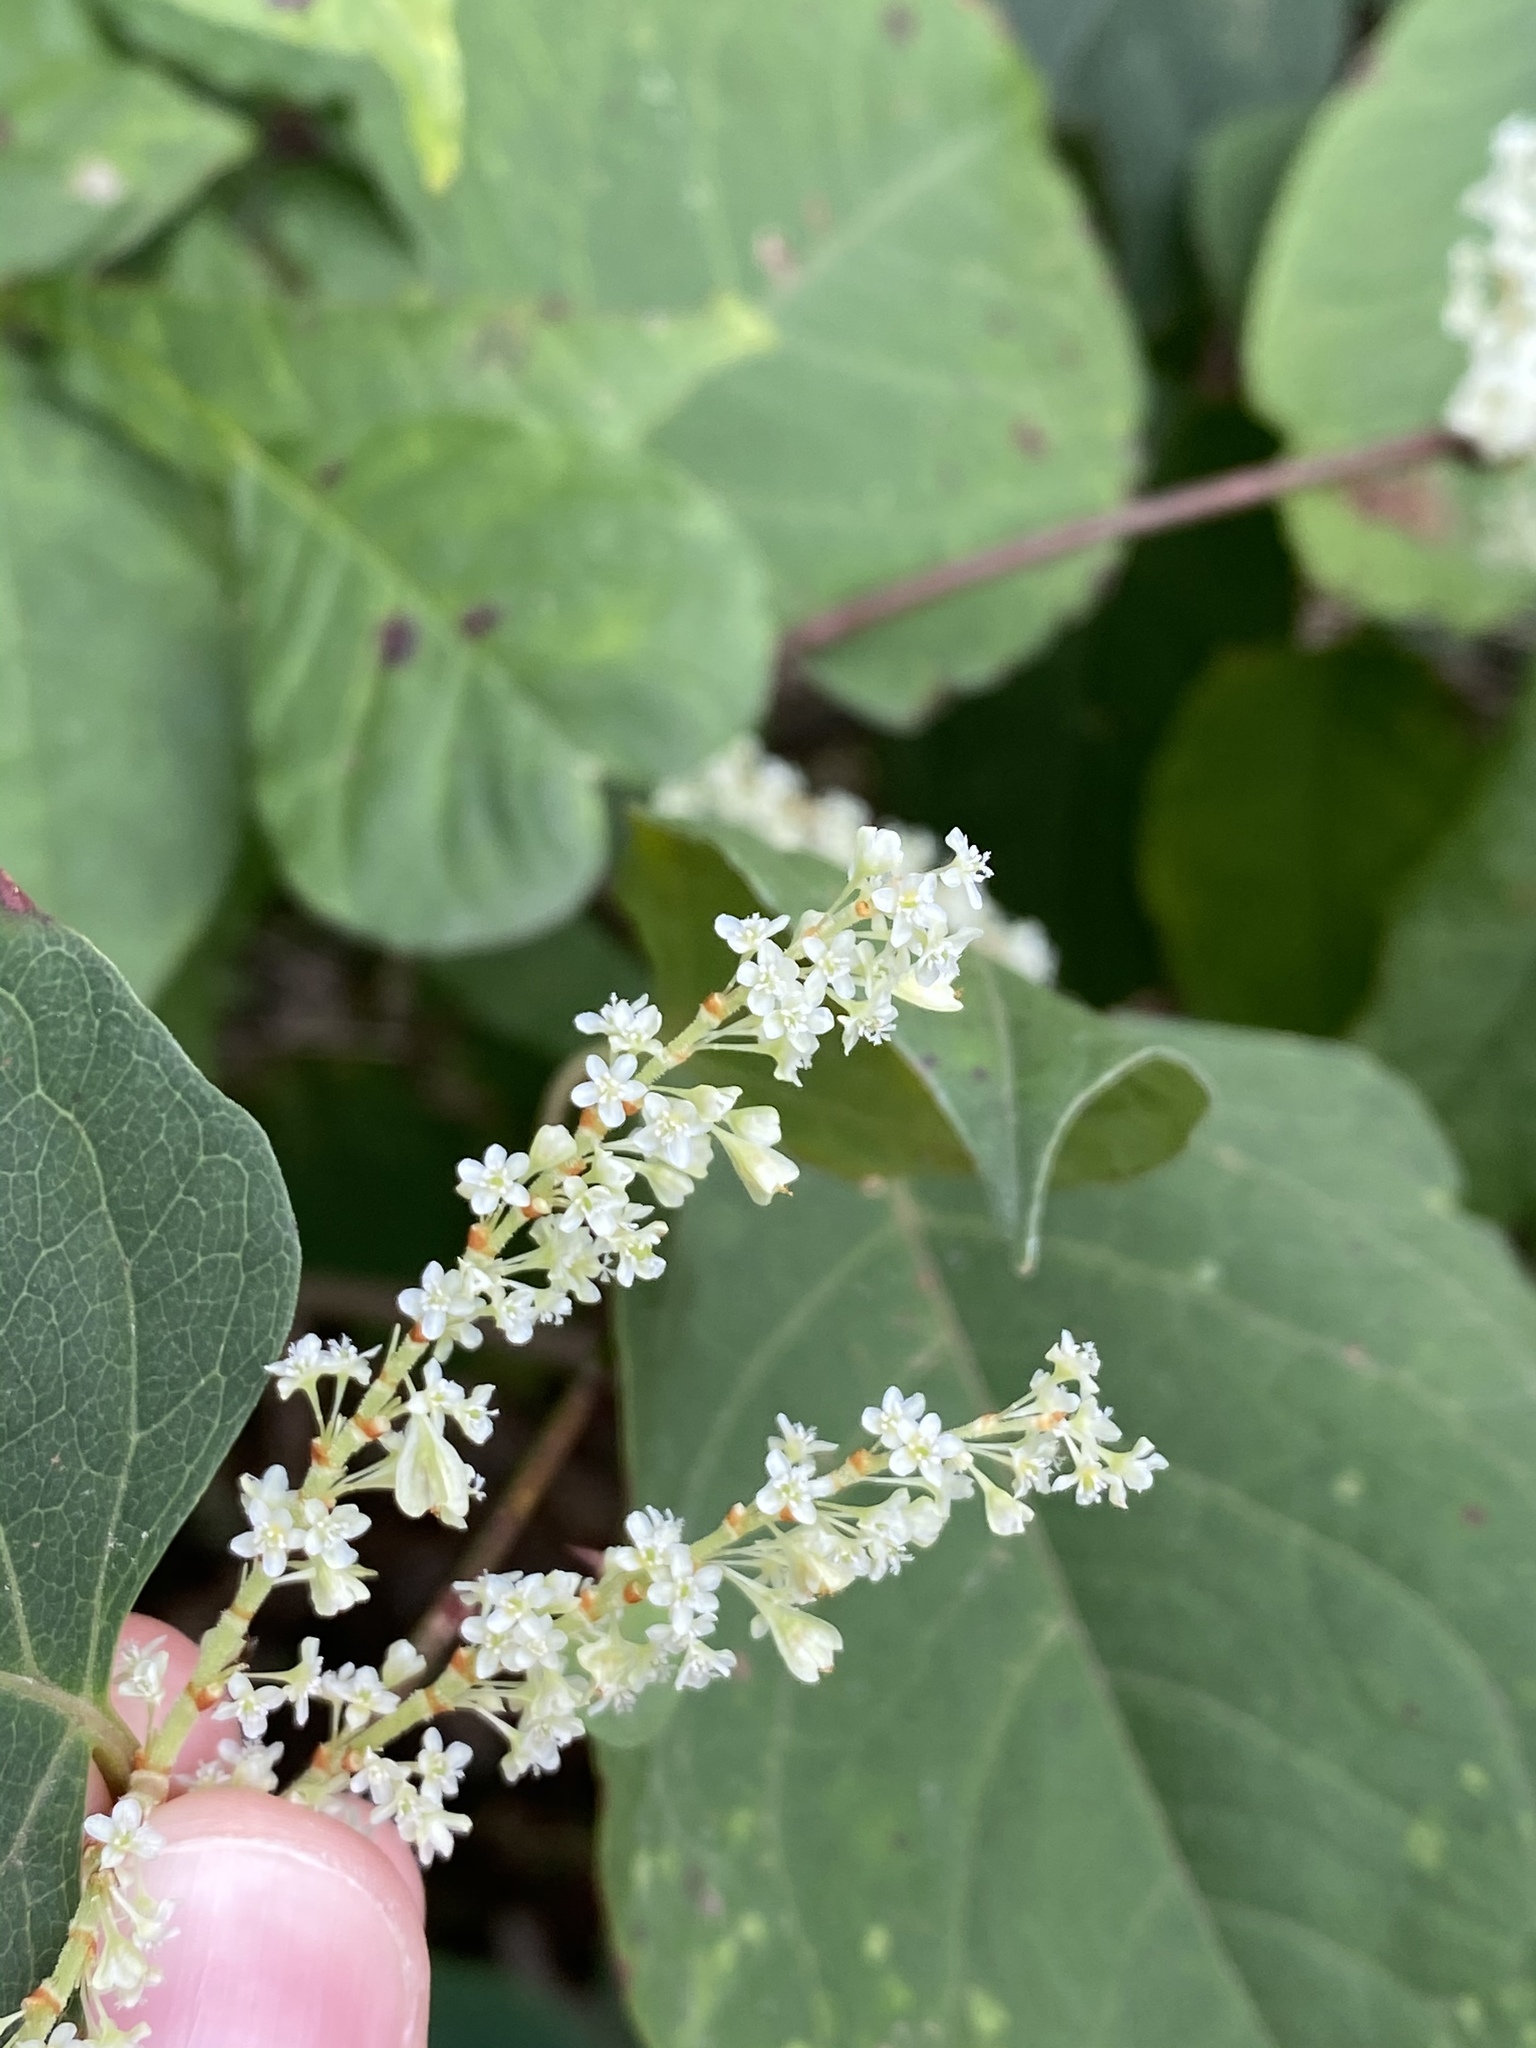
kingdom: Plantae
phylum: Tracheophyta
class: Magnoliopsida
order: Caryophyllales
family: Polygonaceae
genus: Reynoutria
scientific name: Reynoutria japonica
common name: Japanese knotweed
